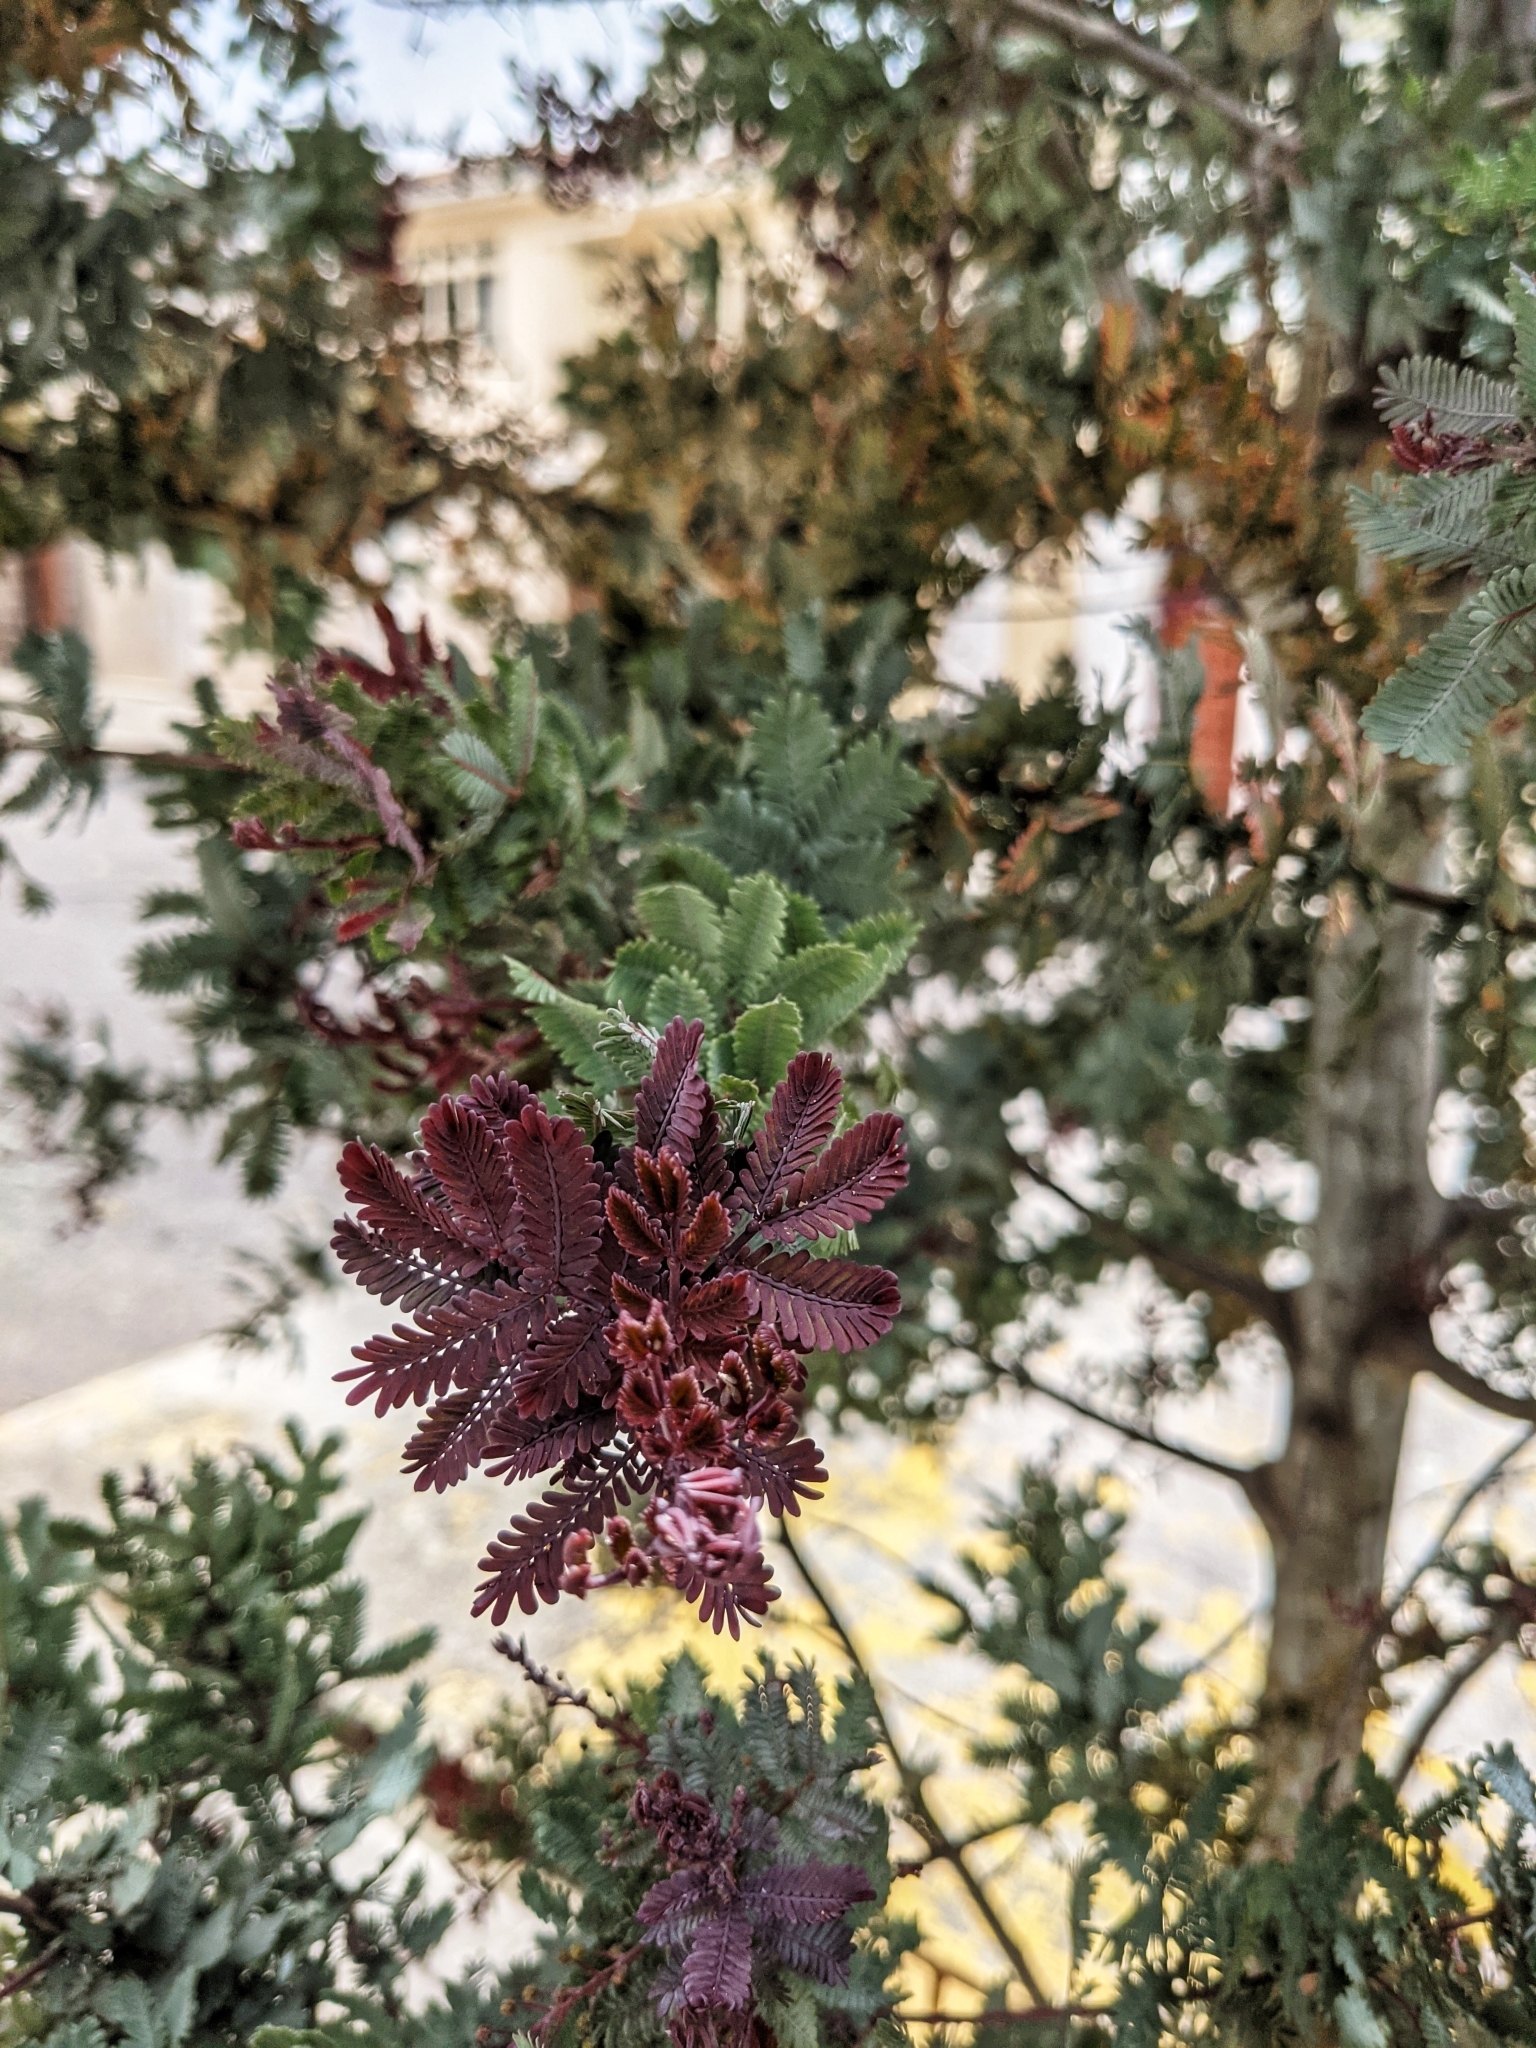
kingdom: Plantae
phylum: Tracheophyta
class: Magnoliopsida
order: Fabales
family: Fabaceae
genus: Acacia
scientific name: Acacia baileyana
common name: Cootamundra wattle
